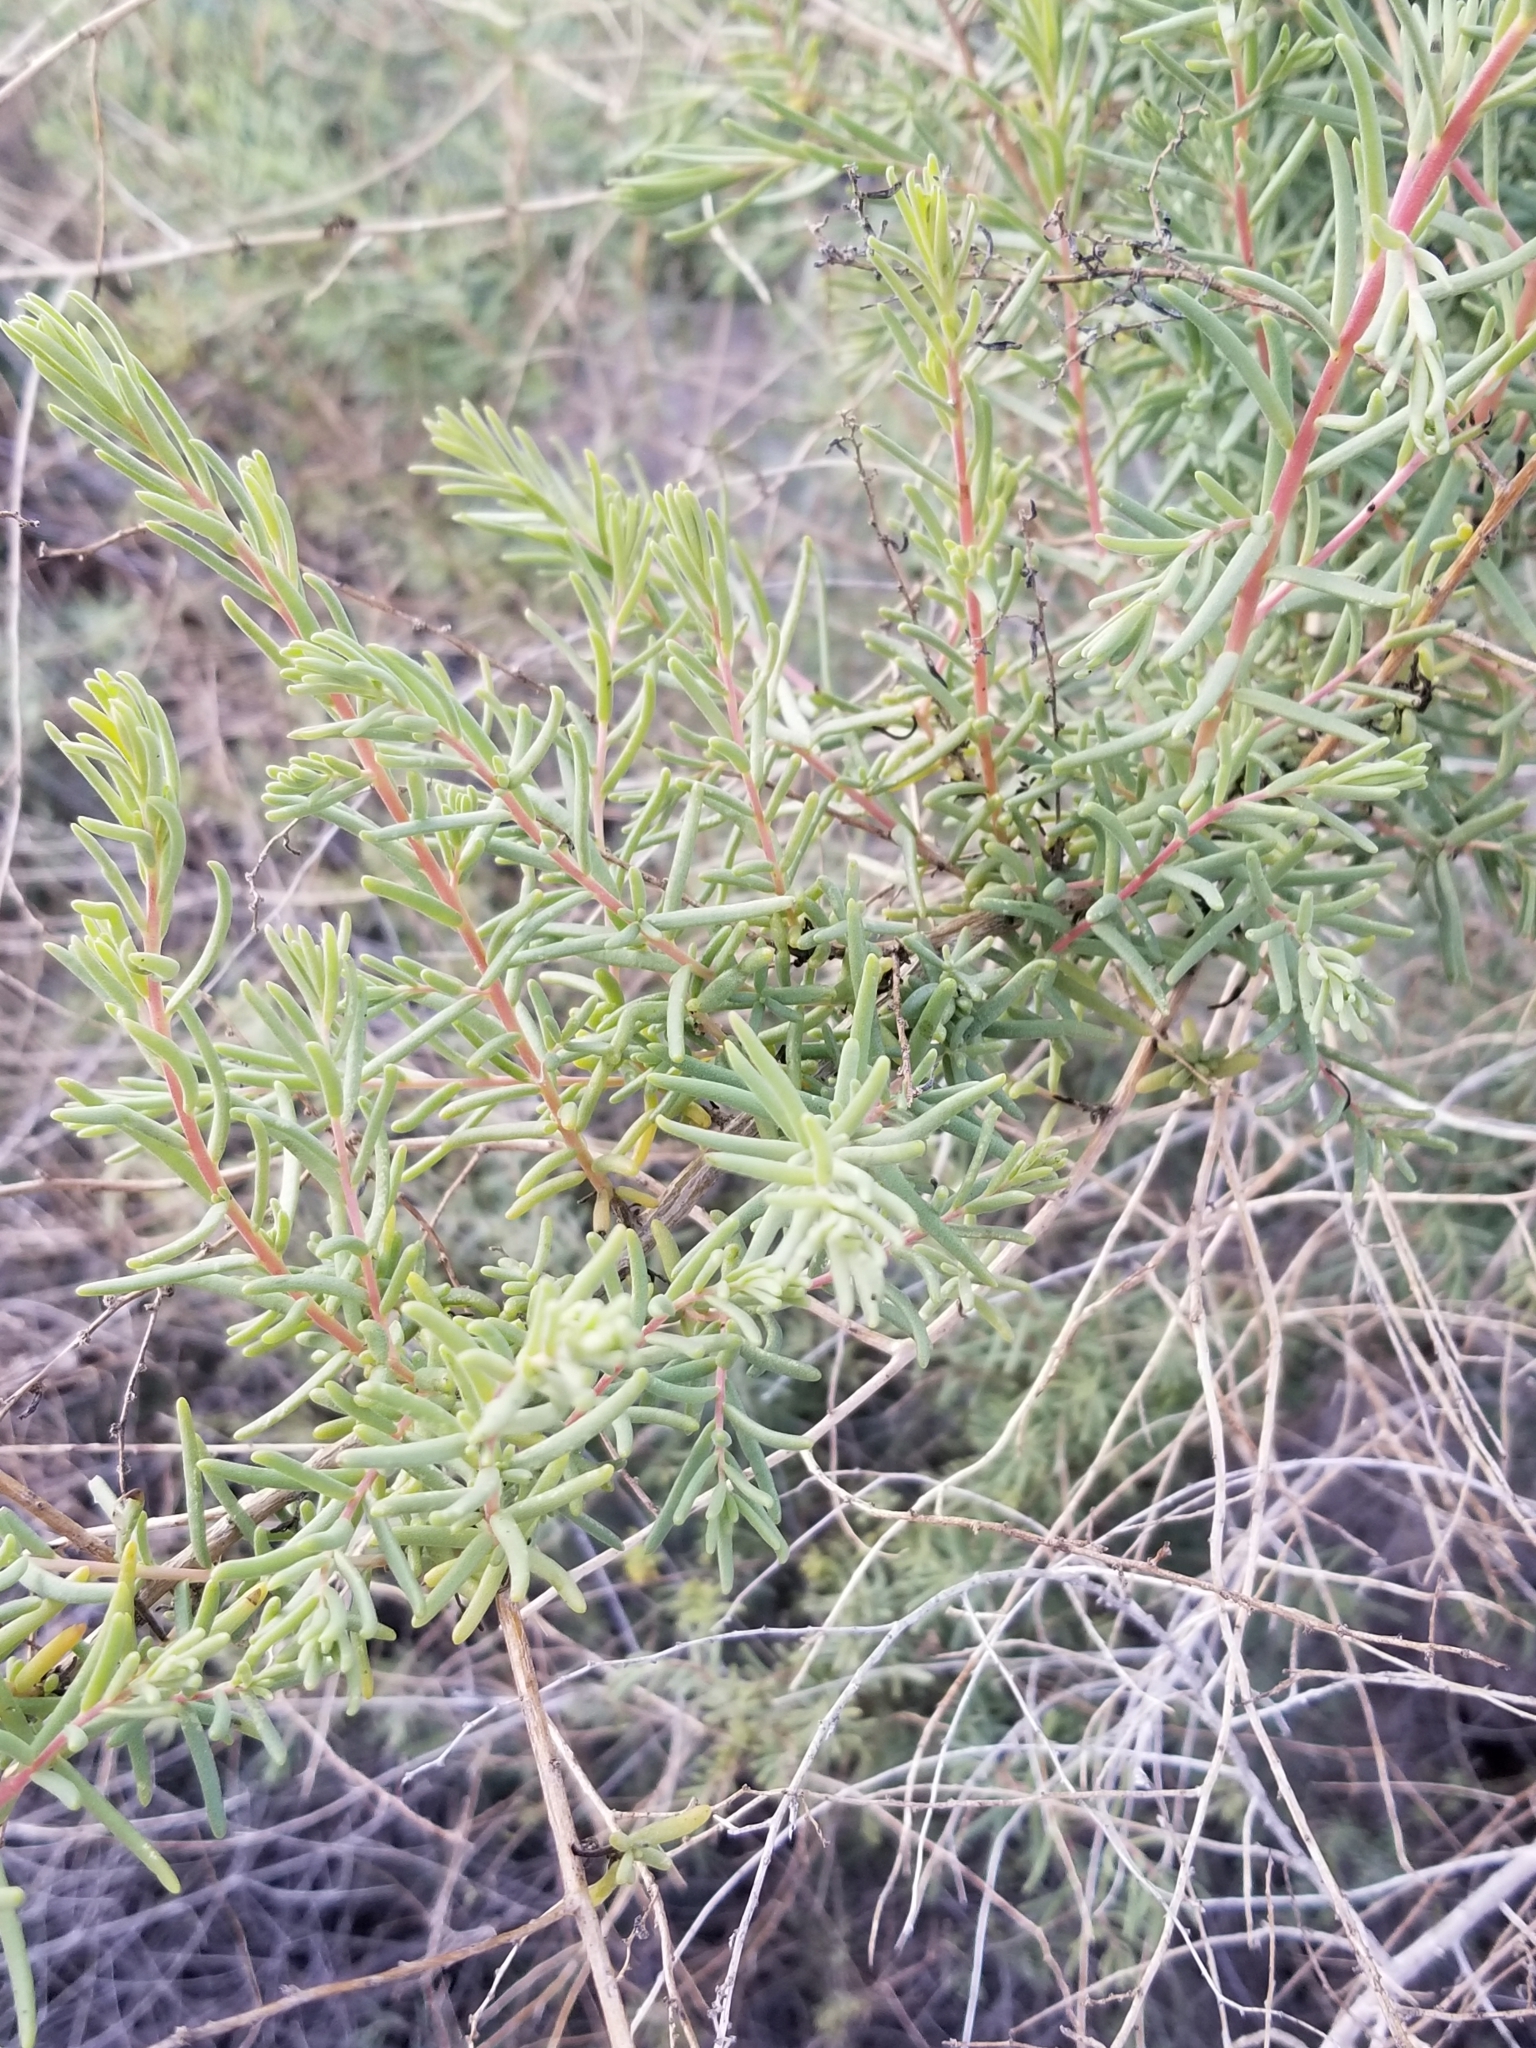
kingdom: Plantae
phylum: Tracheophyta
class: Magnoliopsida
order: Caryophyllales
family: Amaranthaceae
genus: Suaeda
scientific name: Suaeda nigra
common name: Bush seepweed
